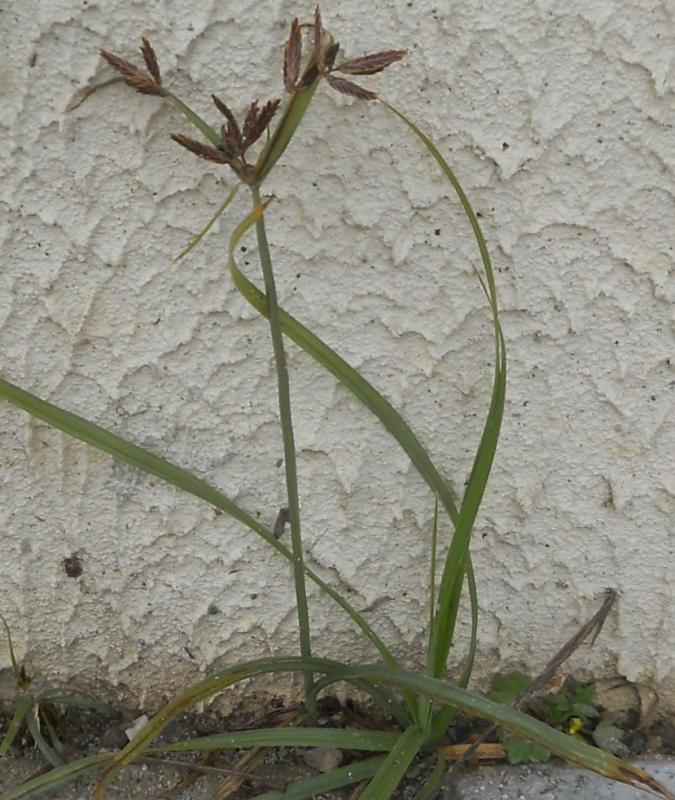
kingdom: Plantae
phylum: Tracheophyta
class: Liliopsida
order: Poales
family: Cyperaceae
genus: Cyperus
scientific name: Cyperus rotundus
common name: Nutgrass
